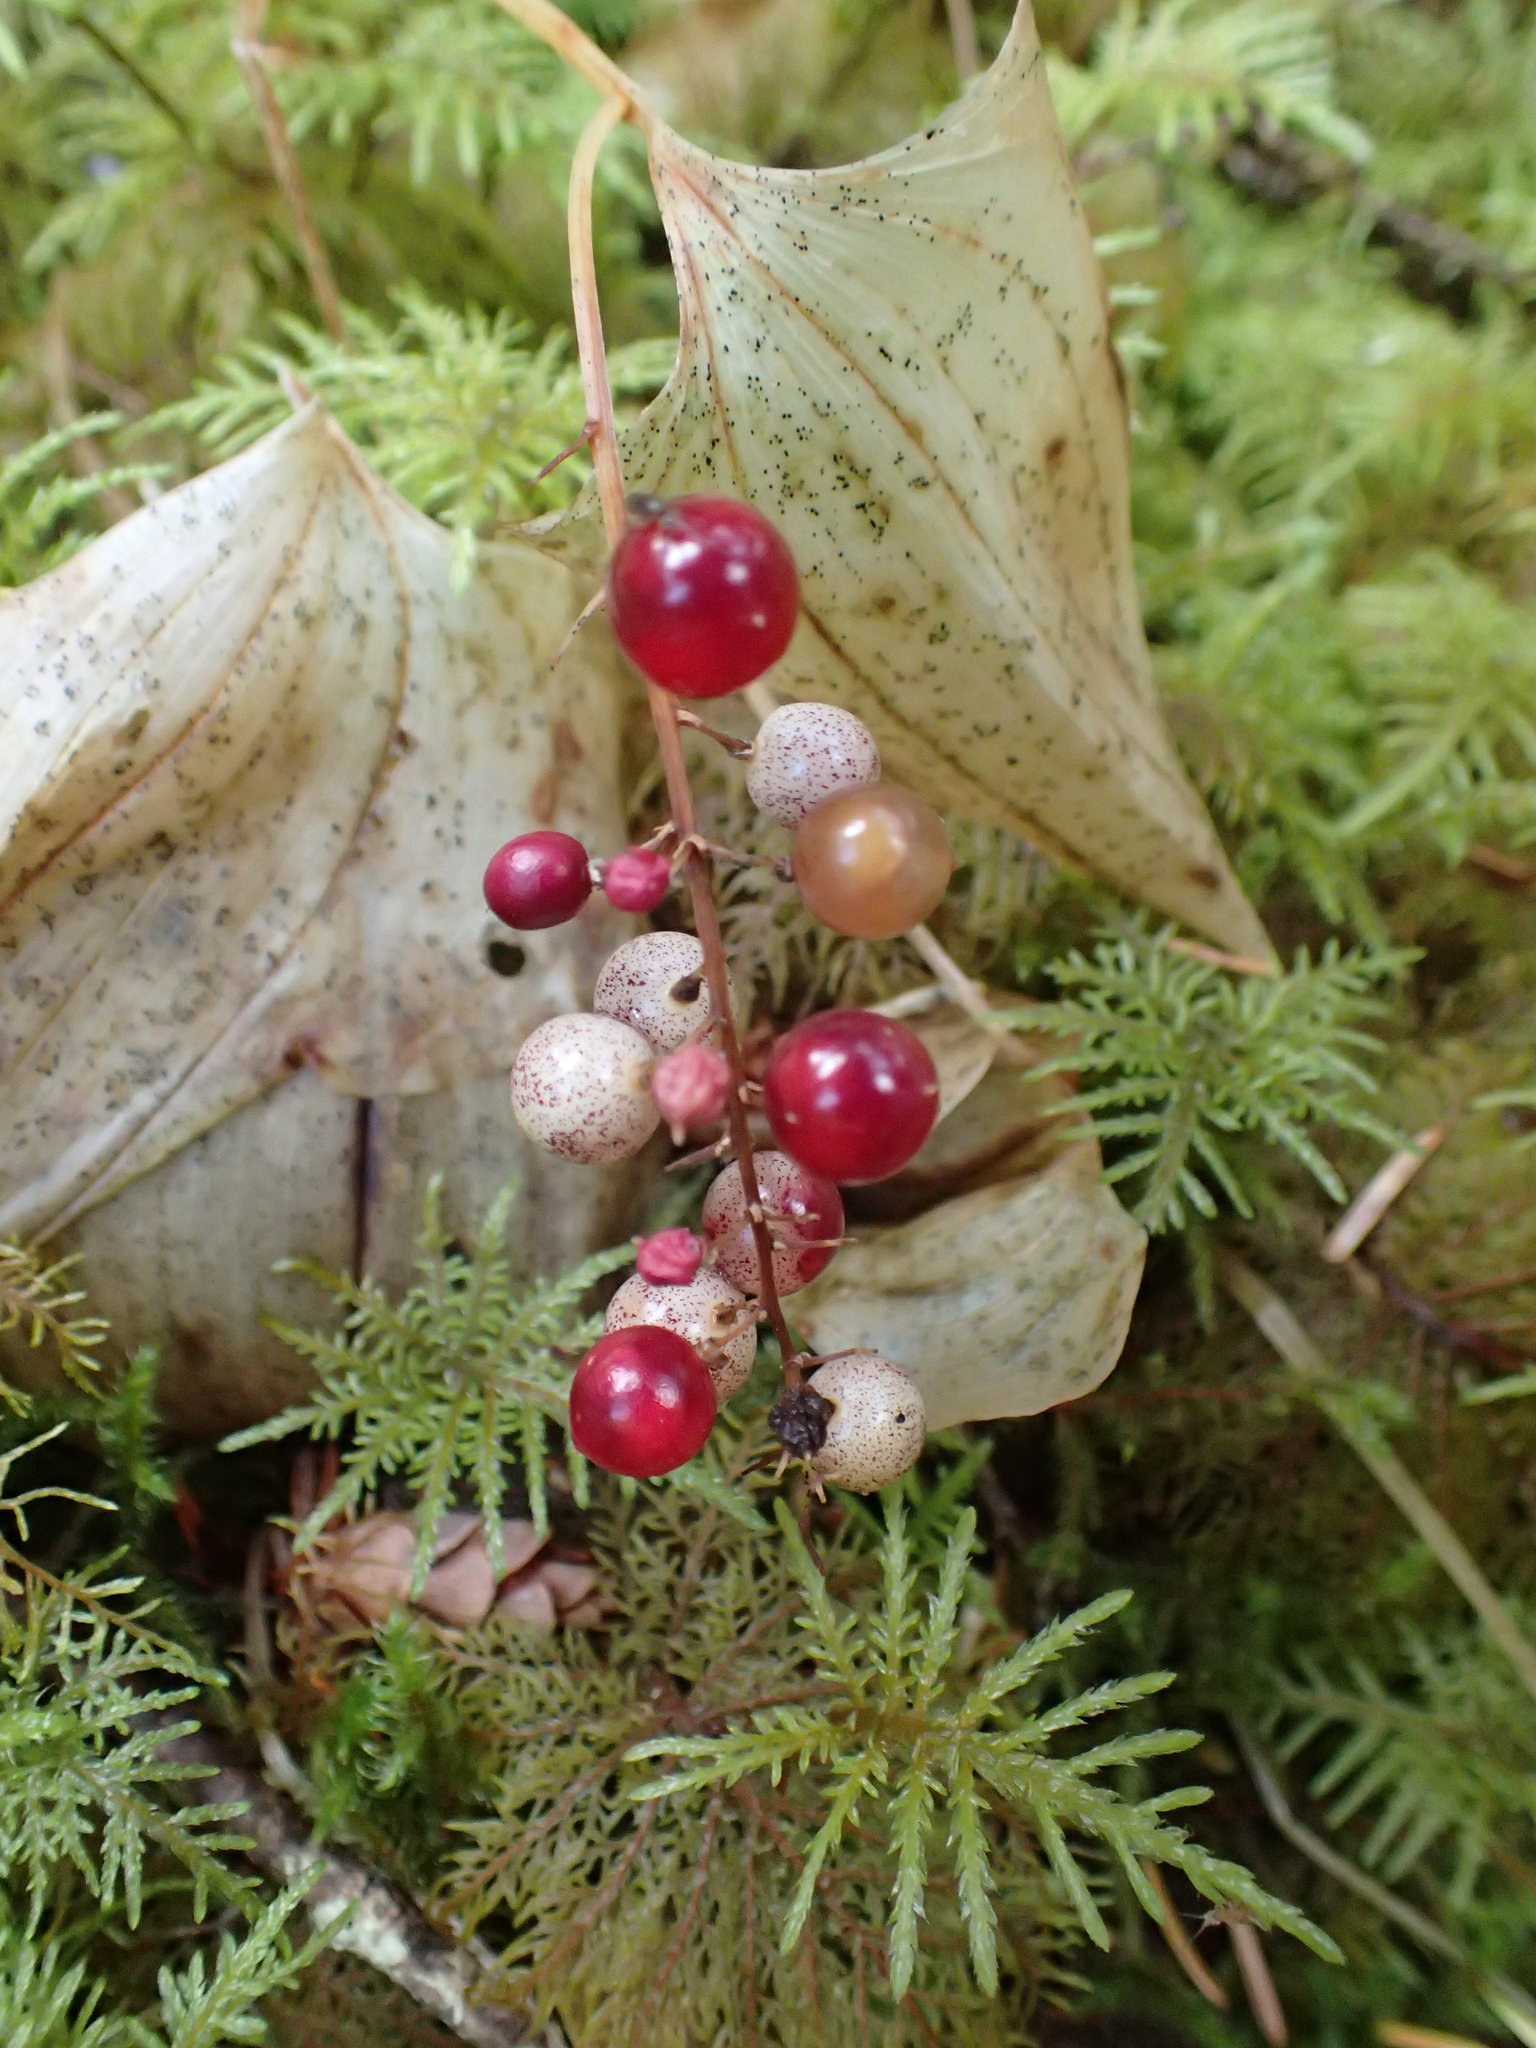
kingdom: Plantae
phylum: Tracheophyta
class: Liliopsida
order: Asparagales
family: Asparagaceae
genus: Maianthemum
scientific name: Maianthemum dilatatum
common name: False lily-of-the-valley
